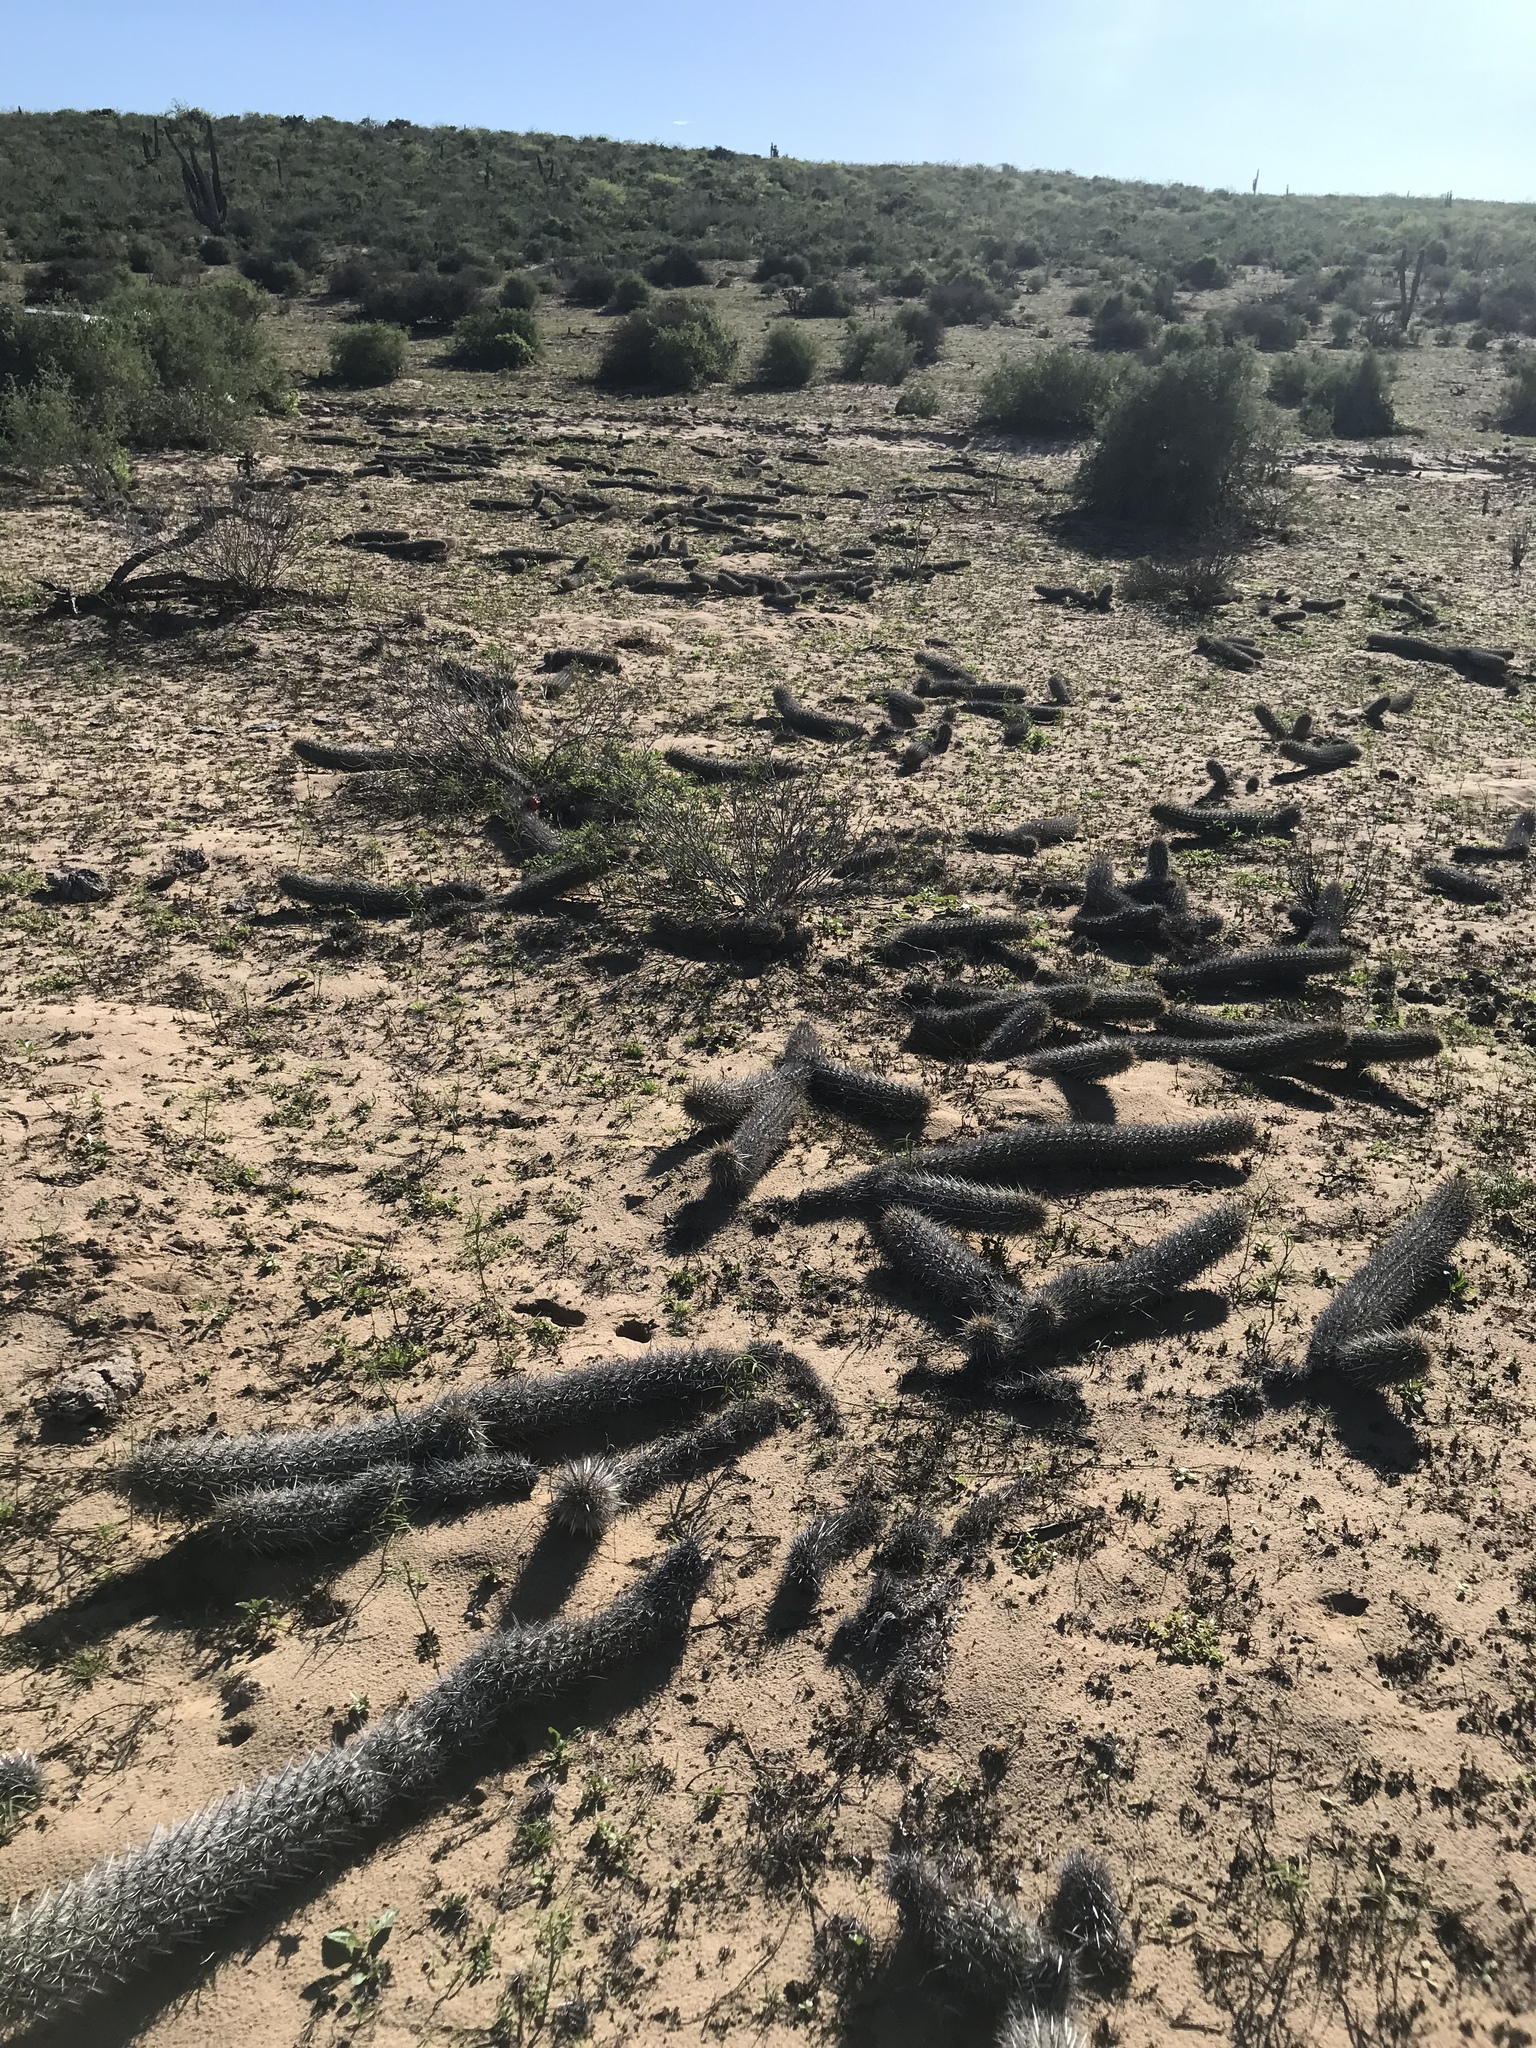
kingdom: Plantae
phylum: Tracheophyta
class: Magnoliopsida
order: Caryophyllales
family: Cactaceae
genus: Stenocereus
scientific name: Stenocereus eruca
